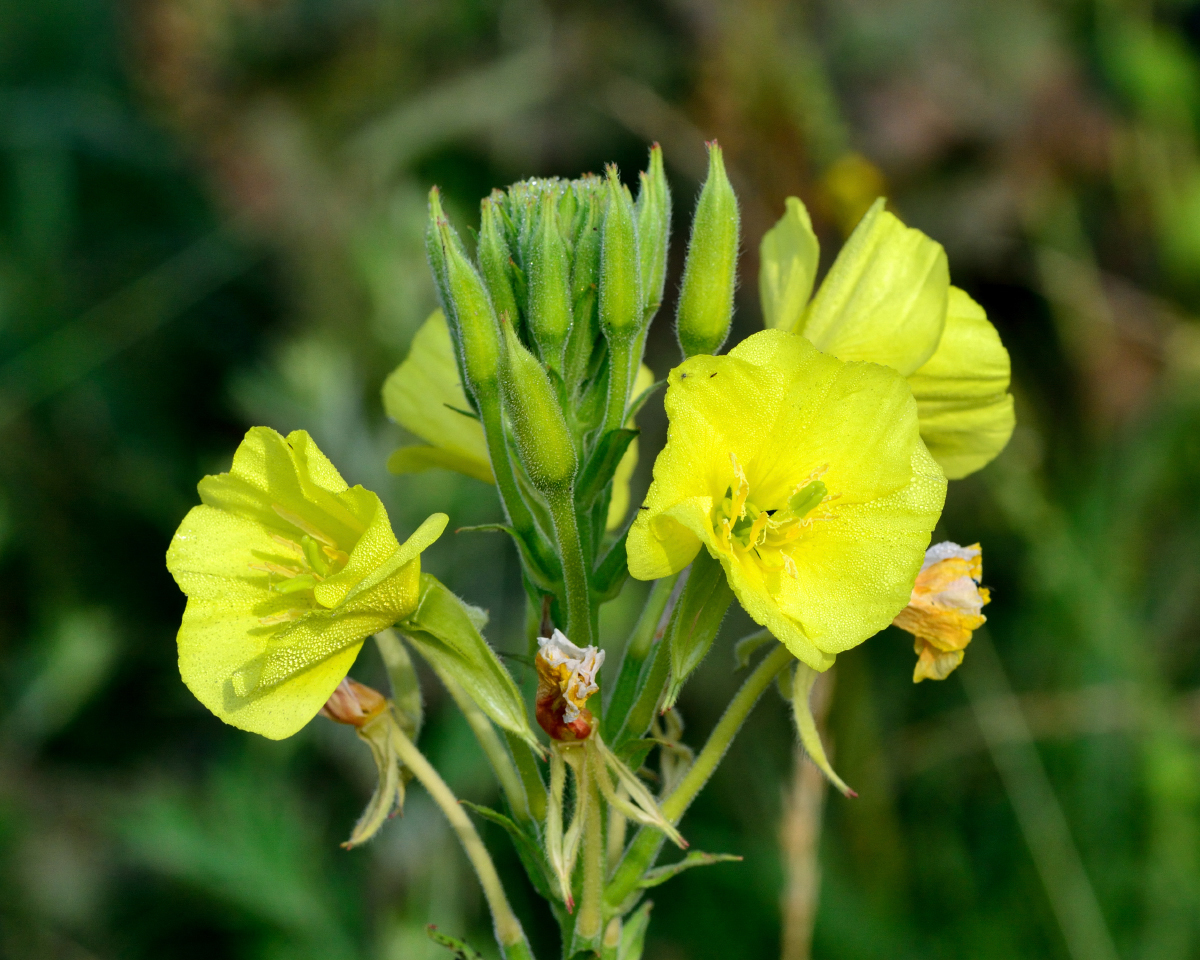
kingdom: Plantae
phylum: Tracheophyta
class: Magnoliopsida
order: Myrtales
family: Onagraceae
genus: Oenothera
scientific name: Oenothera biennis
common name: Common evening-primrose
